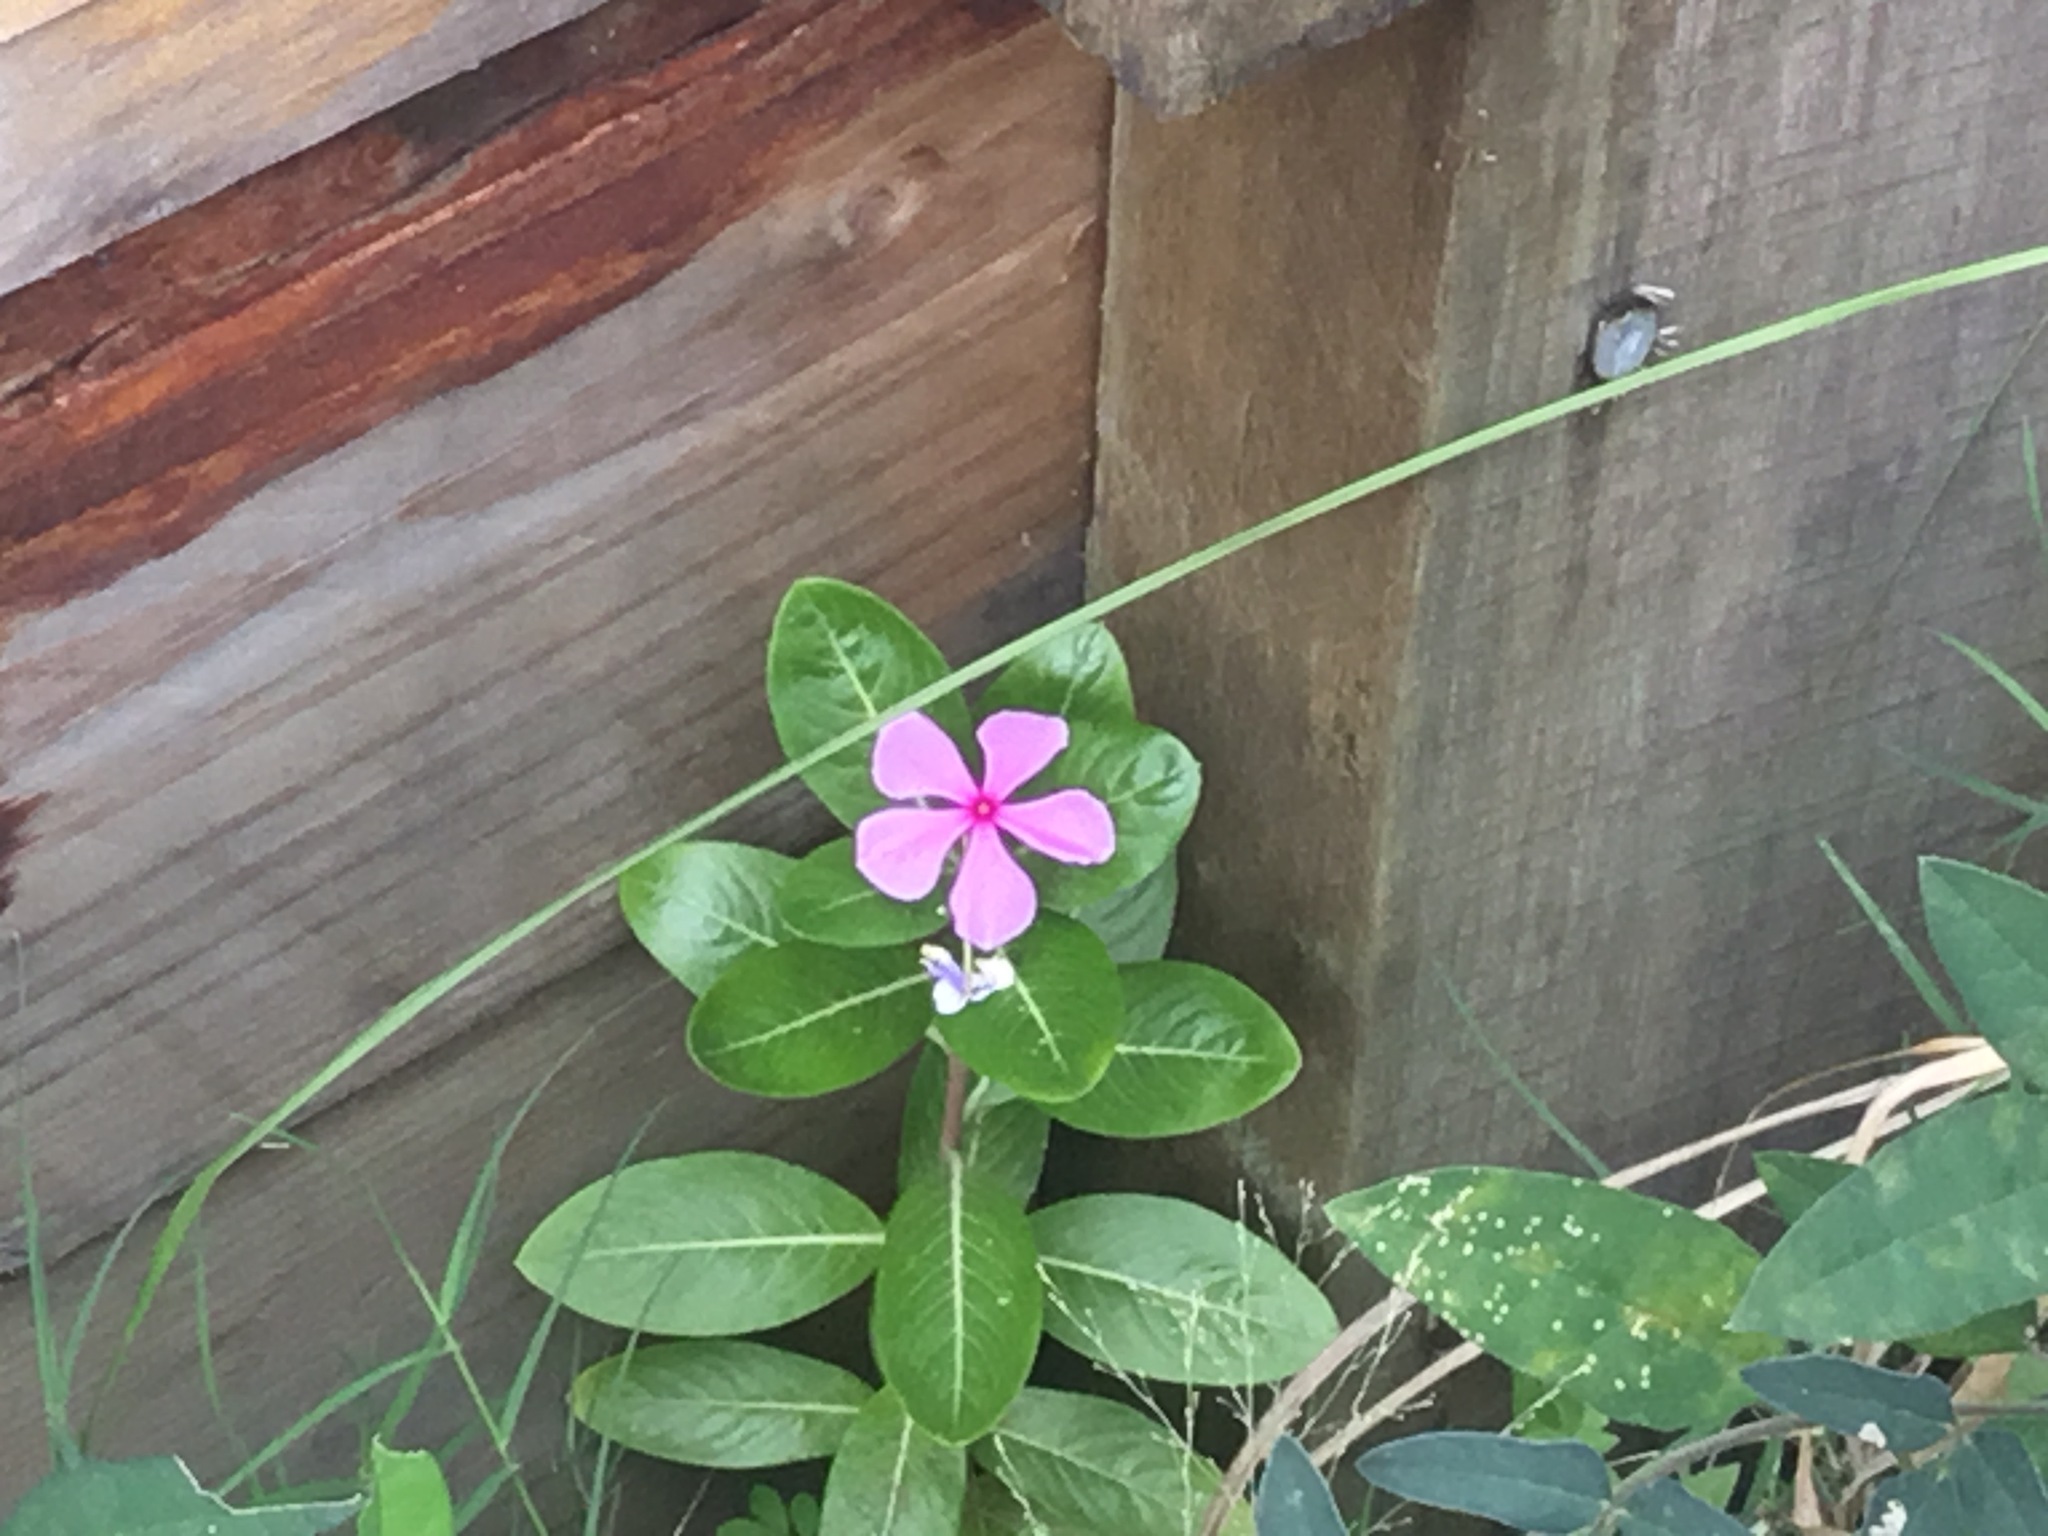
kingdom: Plantae
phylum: Tracheophyta
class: Magnoliopsida
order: Gentianales
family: Apocynaceae
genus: Catharanthus
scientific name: Catharanthus roseus
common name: Madagascar periwinkle
